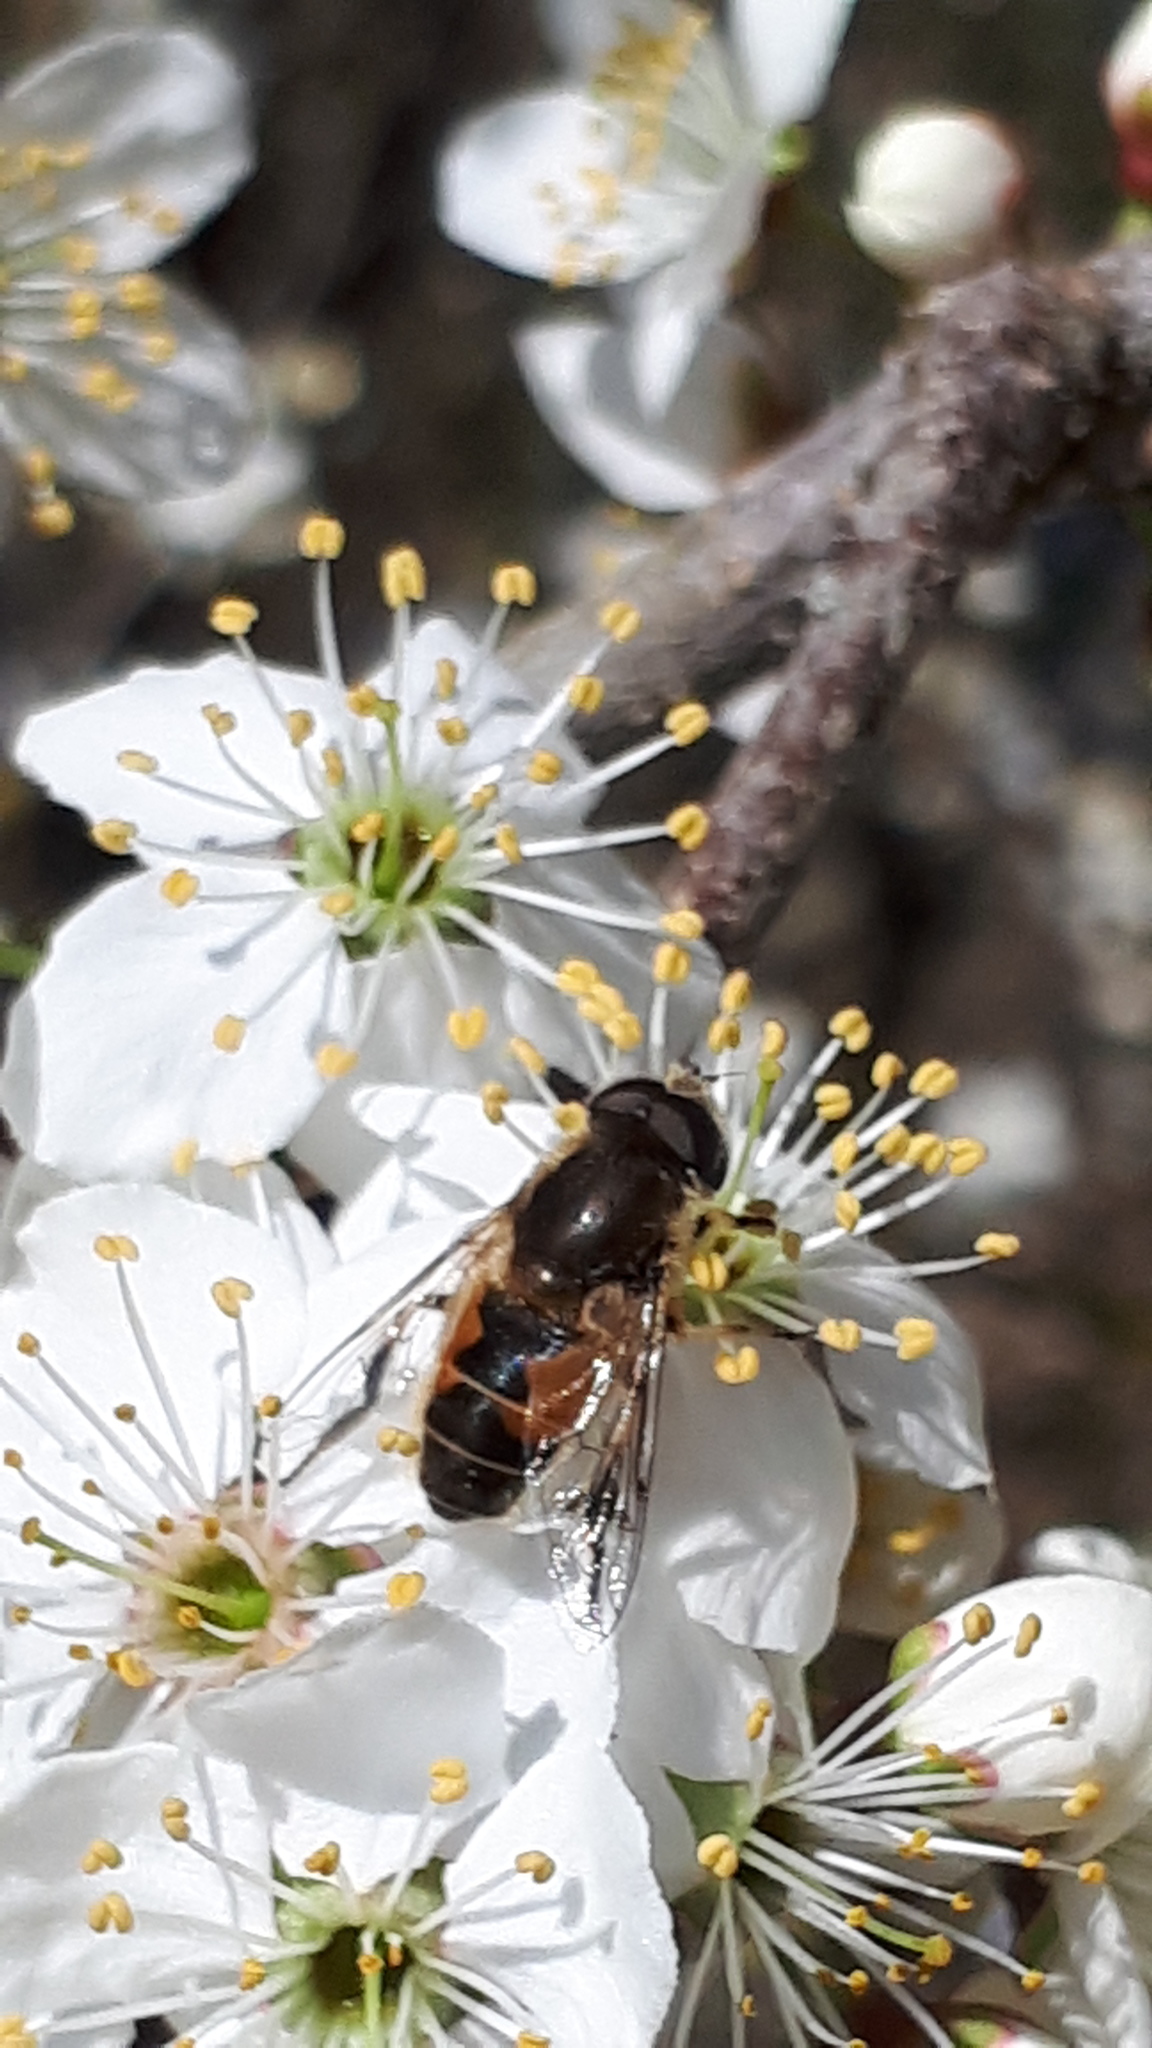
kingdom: Animalia
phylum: Arthropoda
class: Insecta
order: Diptera
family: Syrphidae
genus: Eristalis
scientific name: Eristalis arbustorum
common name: Hover fly
